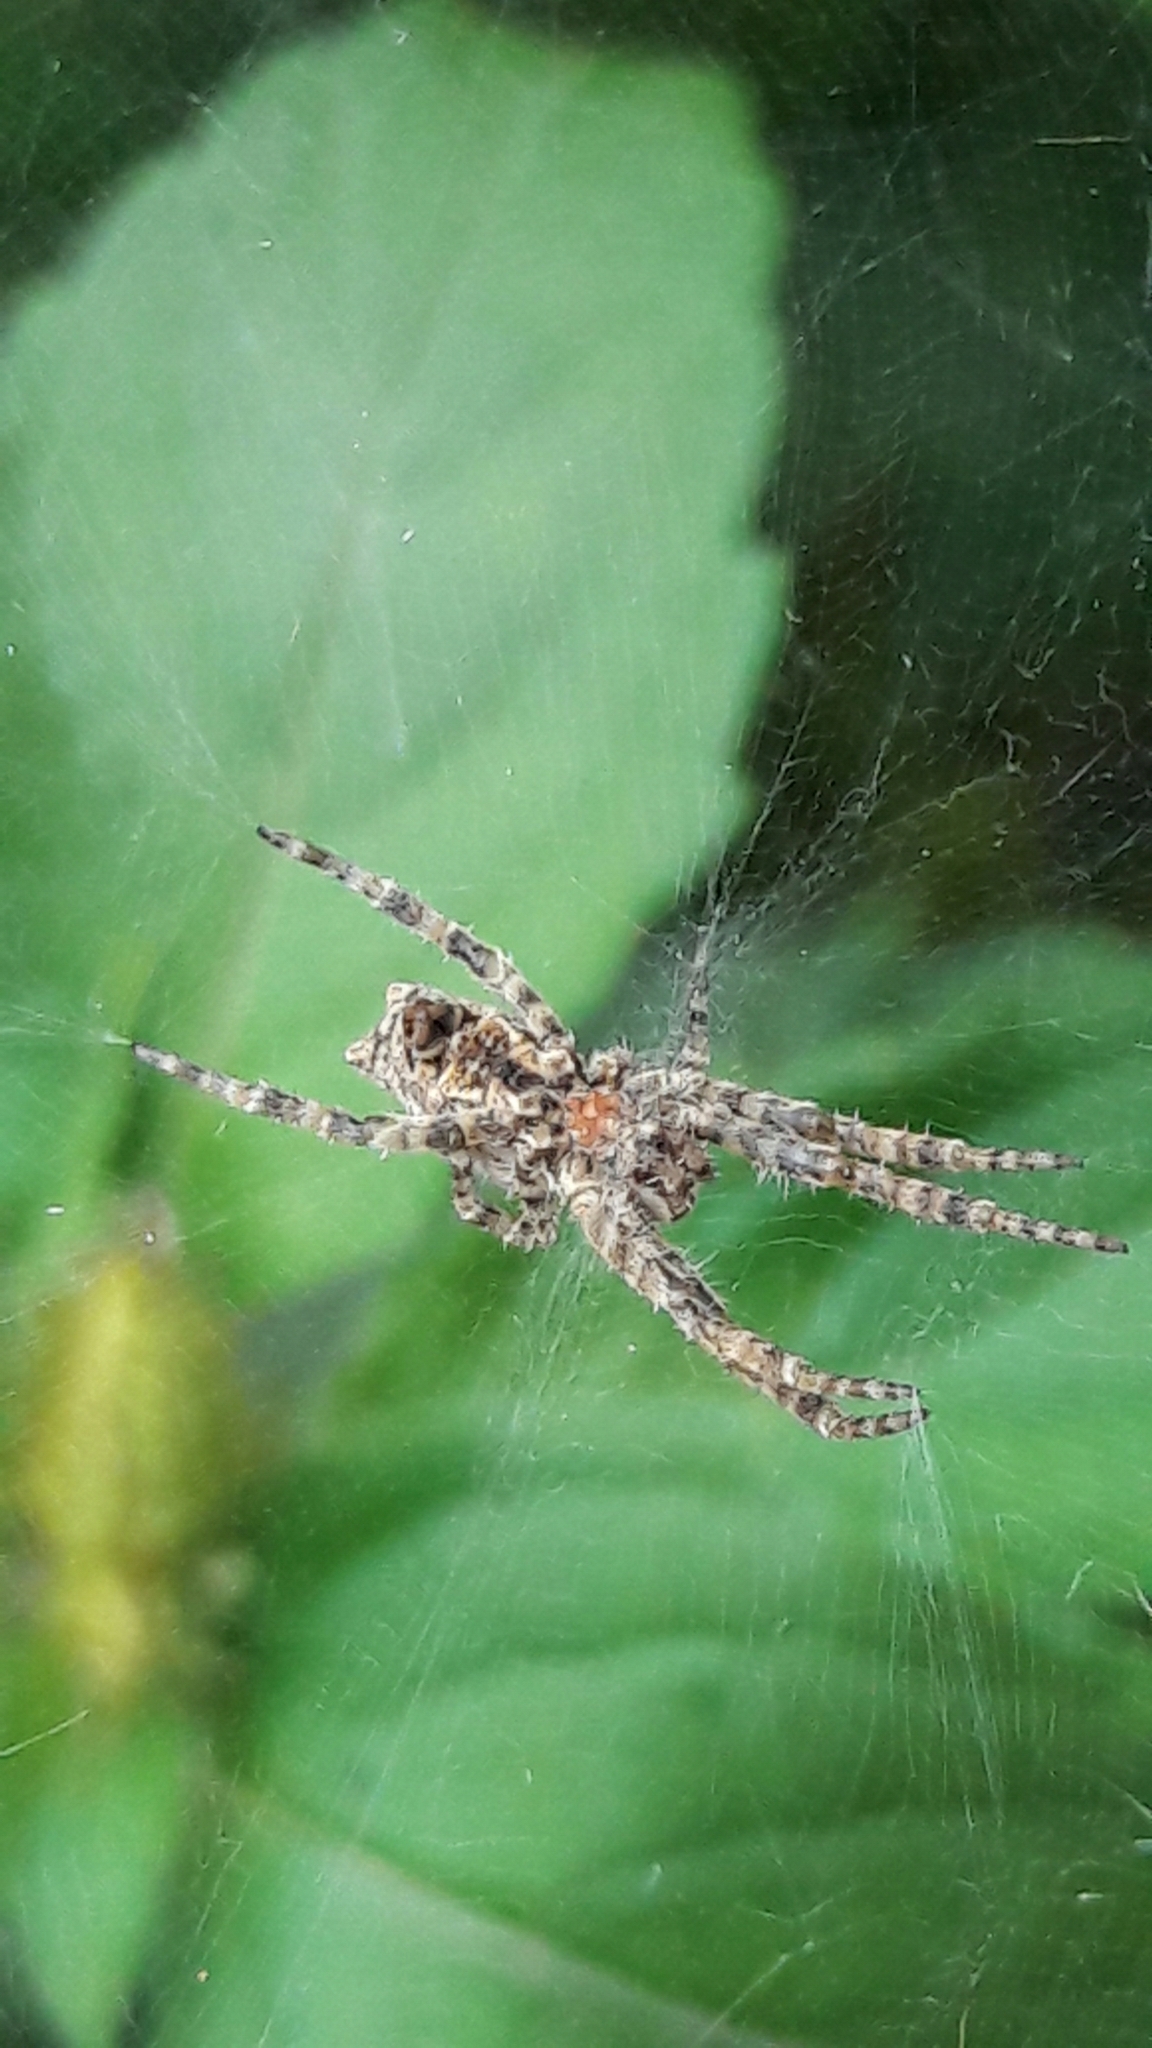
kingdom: Animalia
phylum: Arthropoda
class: Arachnida
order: Araneae
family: Araneidae
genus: Cyrtophora
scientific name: Cyrtophora citricola
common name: Orb weavers
